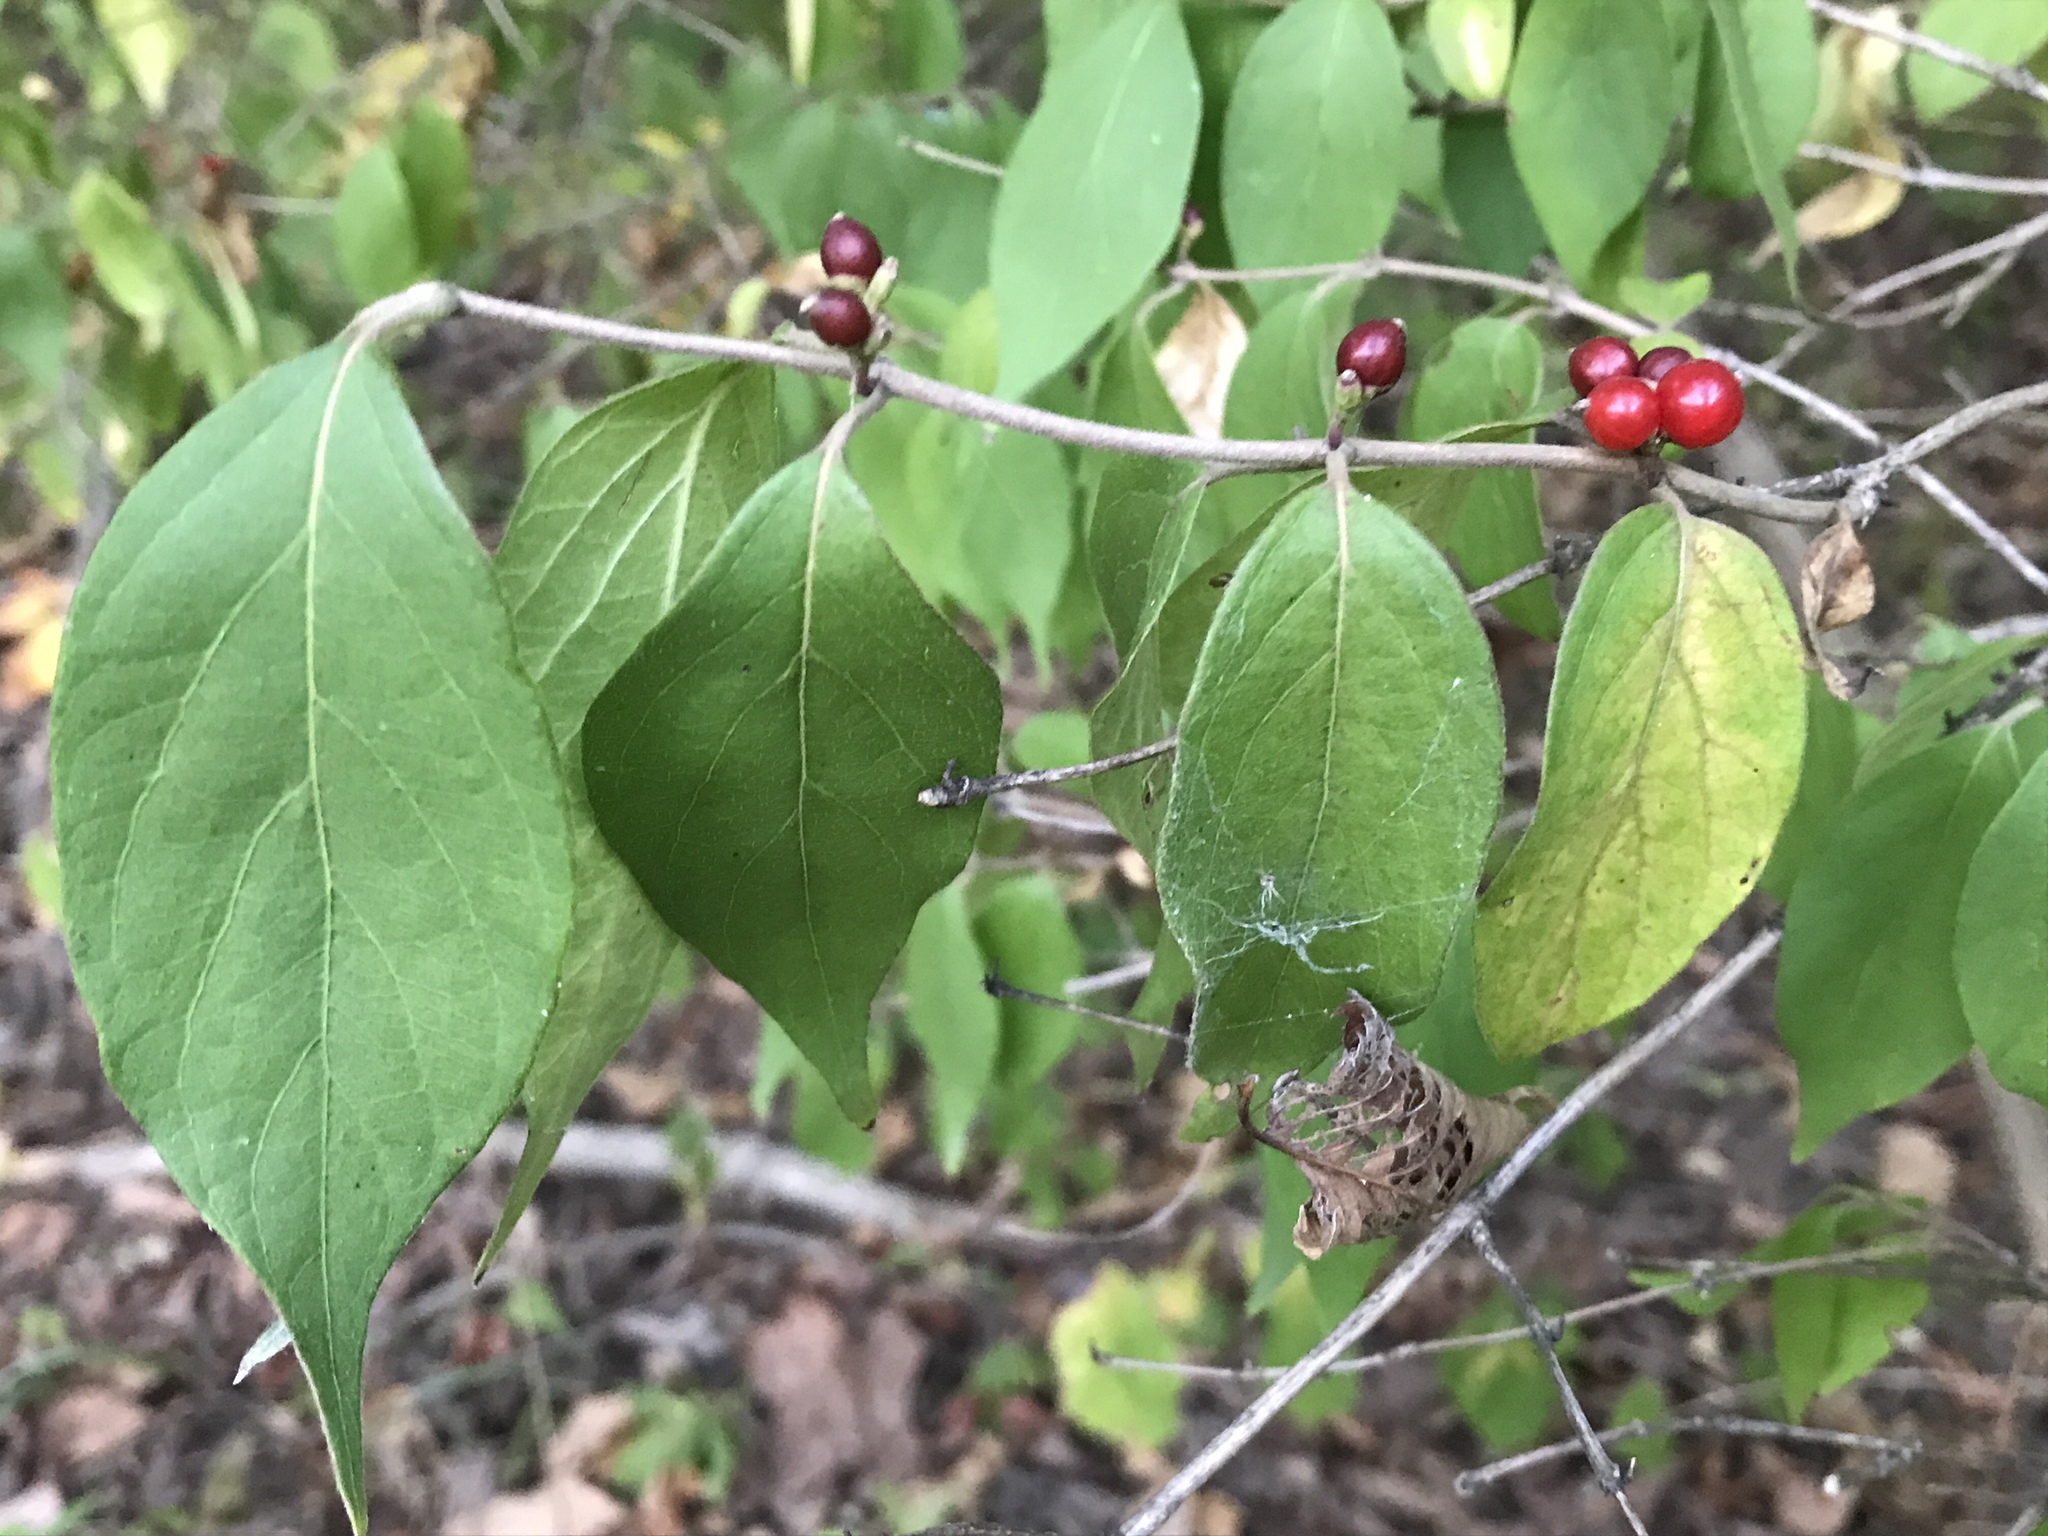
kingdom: Plantae
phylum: Tracheophyta
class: Magnoliopsida
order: Dipsacales
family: Caprifoliaceae
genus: Lonicera
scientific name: Lonicera maackii
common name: Amur honeysuckle
